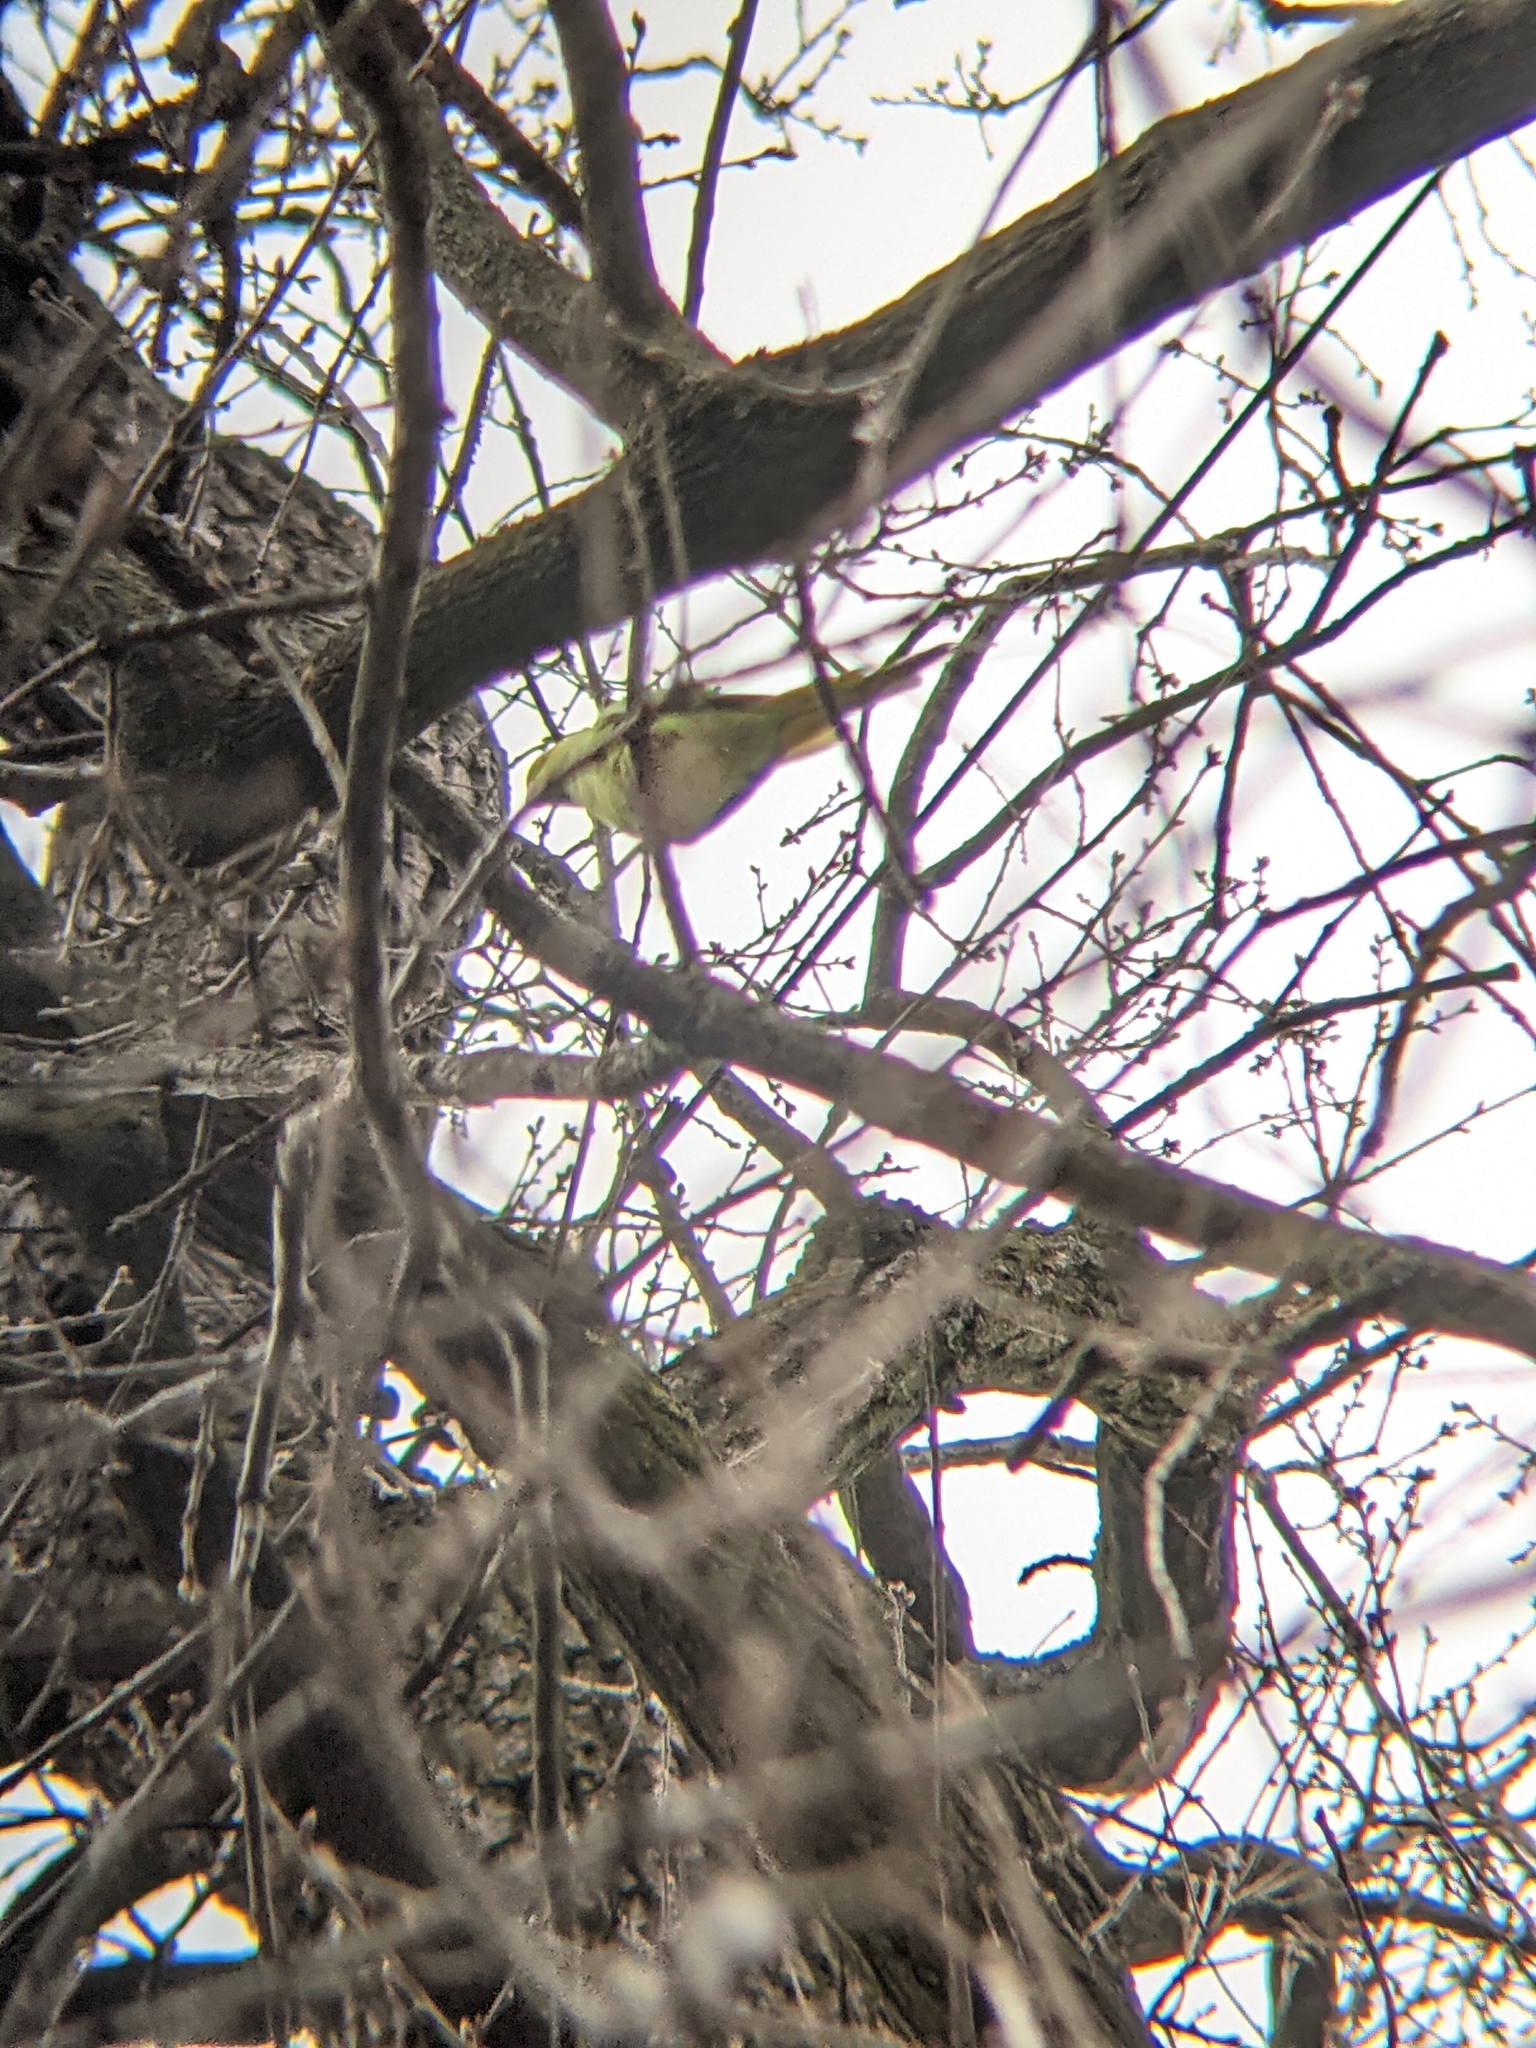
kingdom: Animalia
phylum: Chordata
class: Aves
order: Psittaciformes
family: Psittacidae
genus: Psittacula
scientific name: Psittacula krameri
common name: Rose-ringed parakeet
